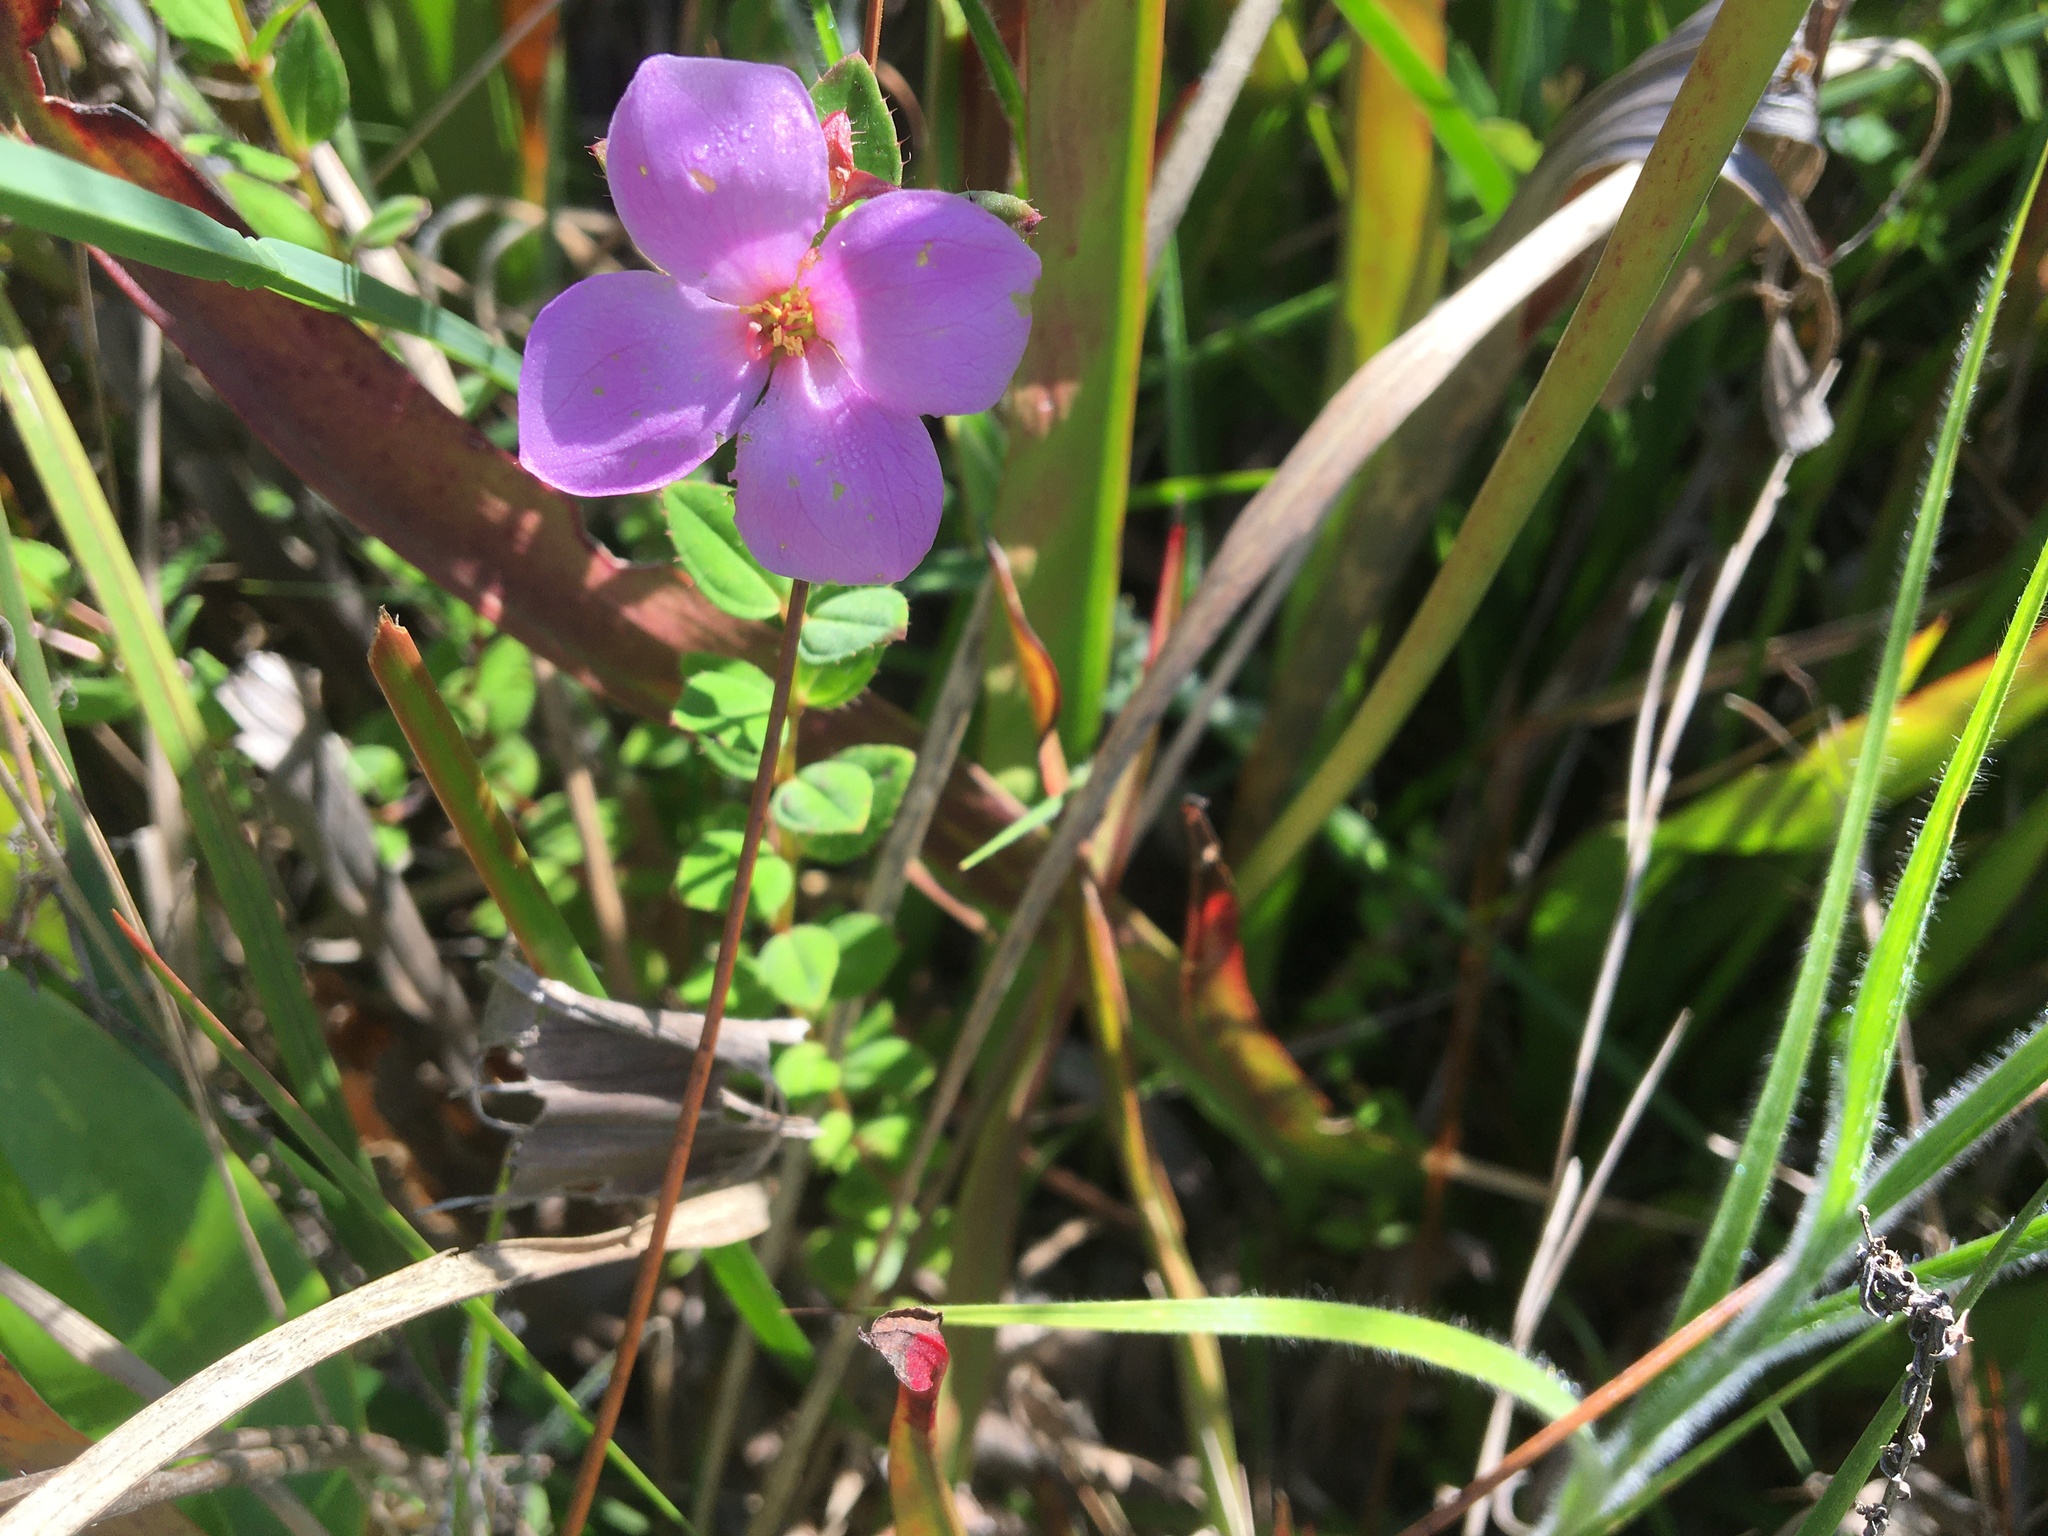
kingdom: Plantae
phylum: Tracheophyta
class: Magnoliopsida
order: Myrtales
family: Melastomataceae
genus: Rhexia
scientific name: Rhexia petiolata
